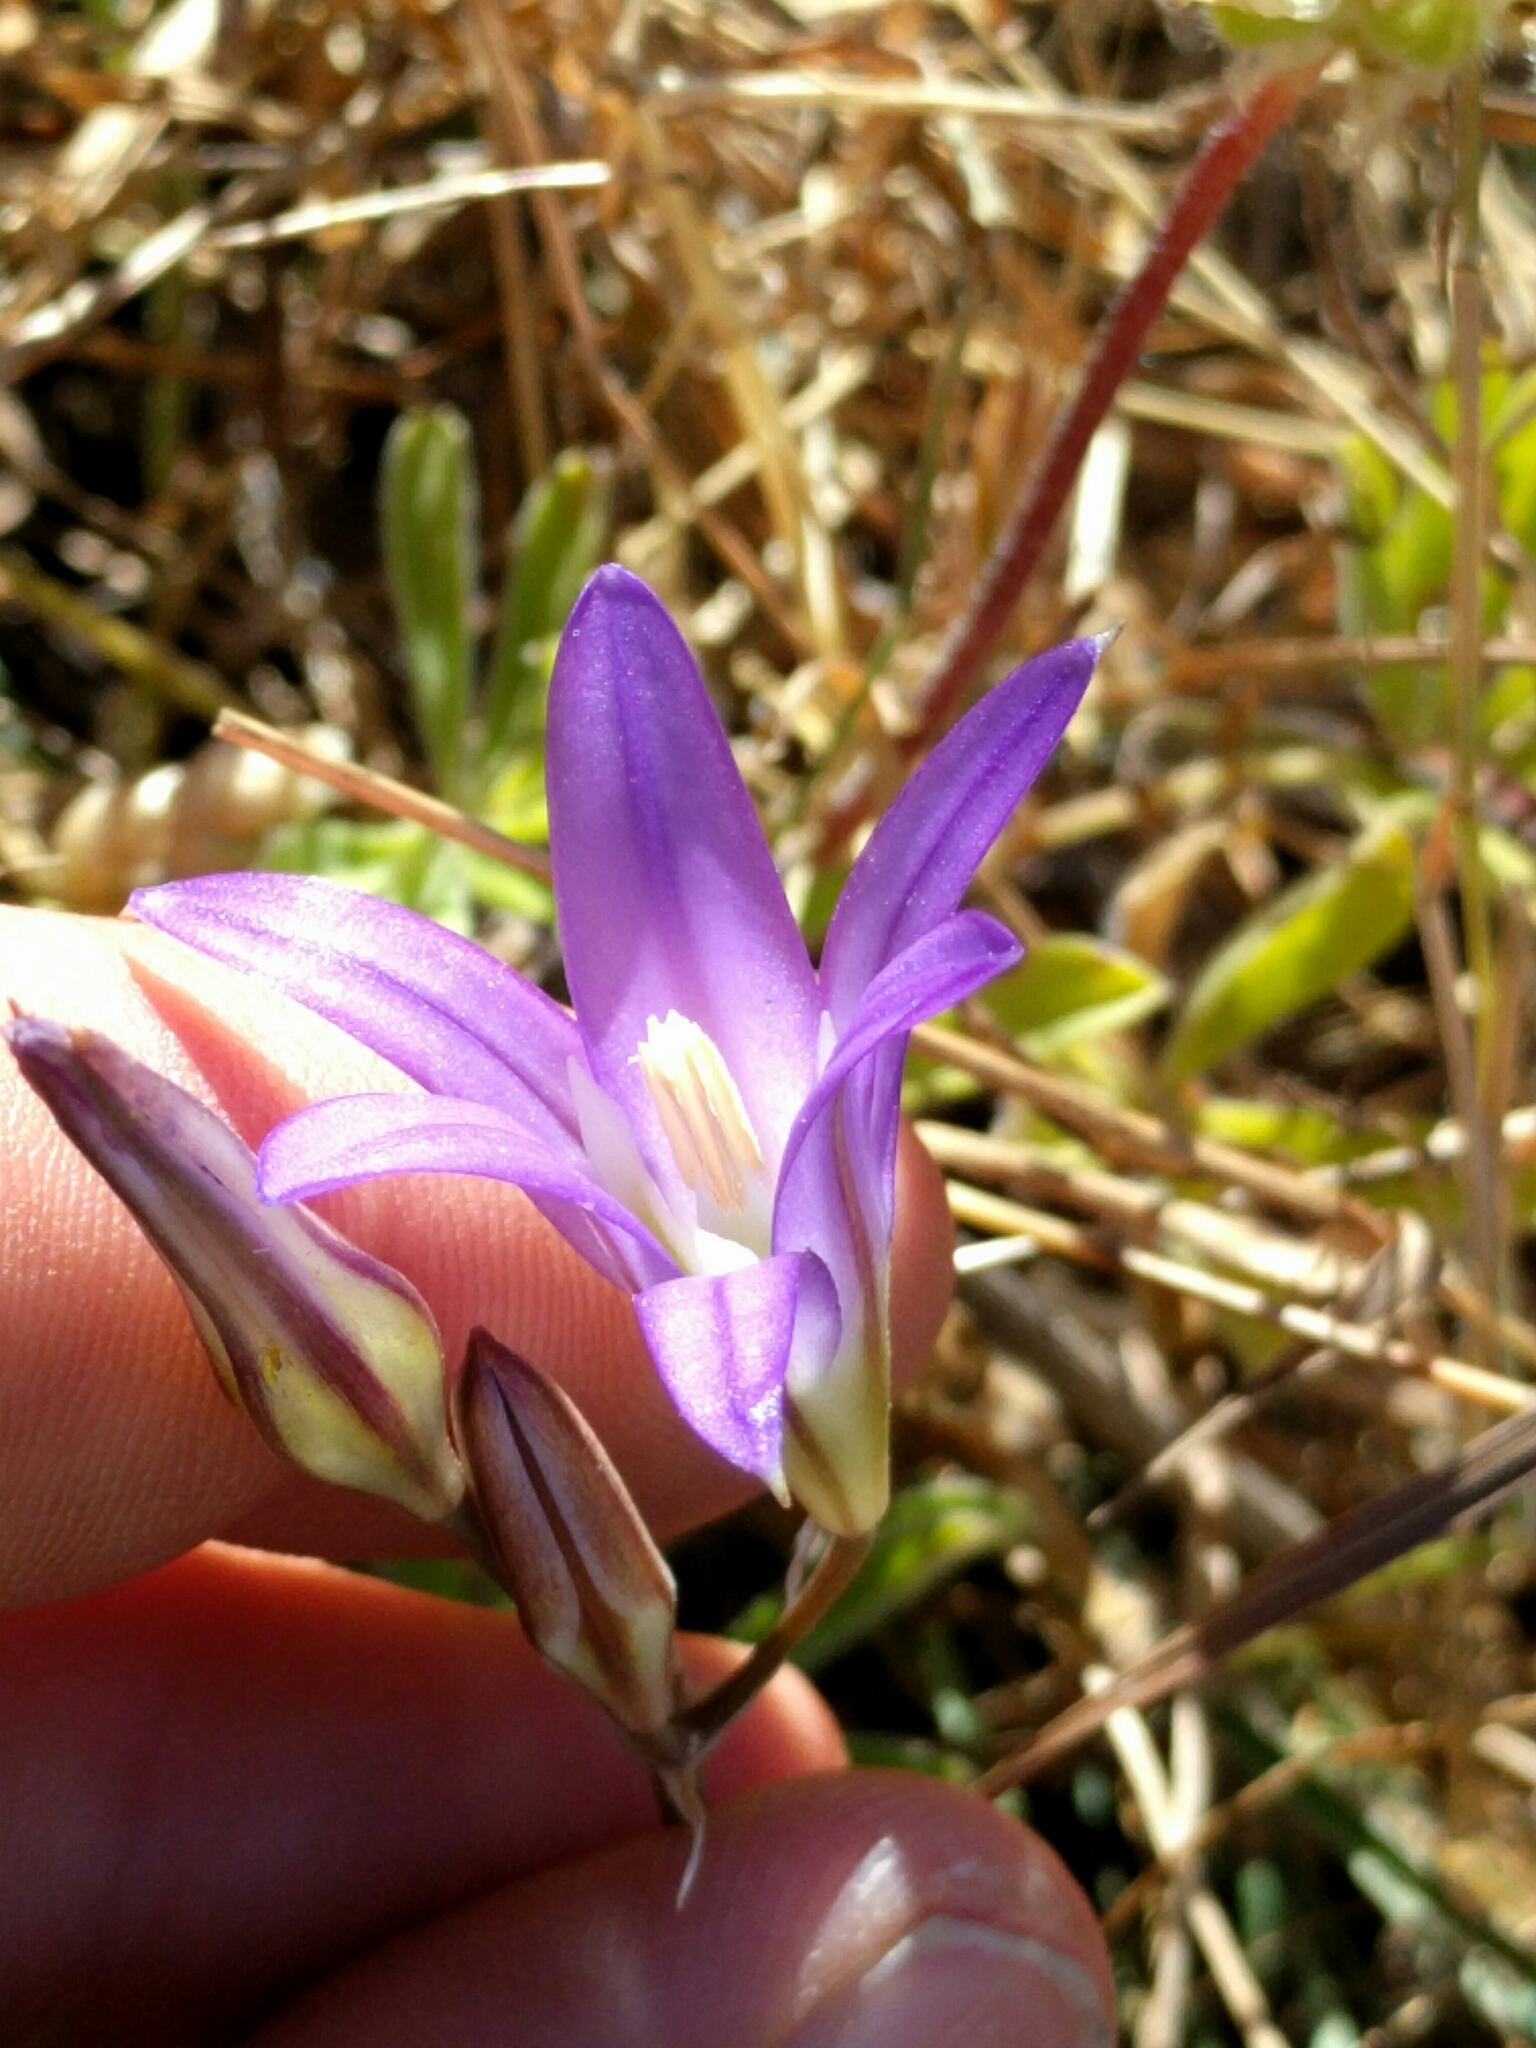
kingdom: Plantae
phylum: Tracheophyta
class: Liliopsida
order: Asparagales
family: Asparagaceae
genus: Brodiaea
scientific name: Brodiaea elegans
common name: Elegant cluster-lily
